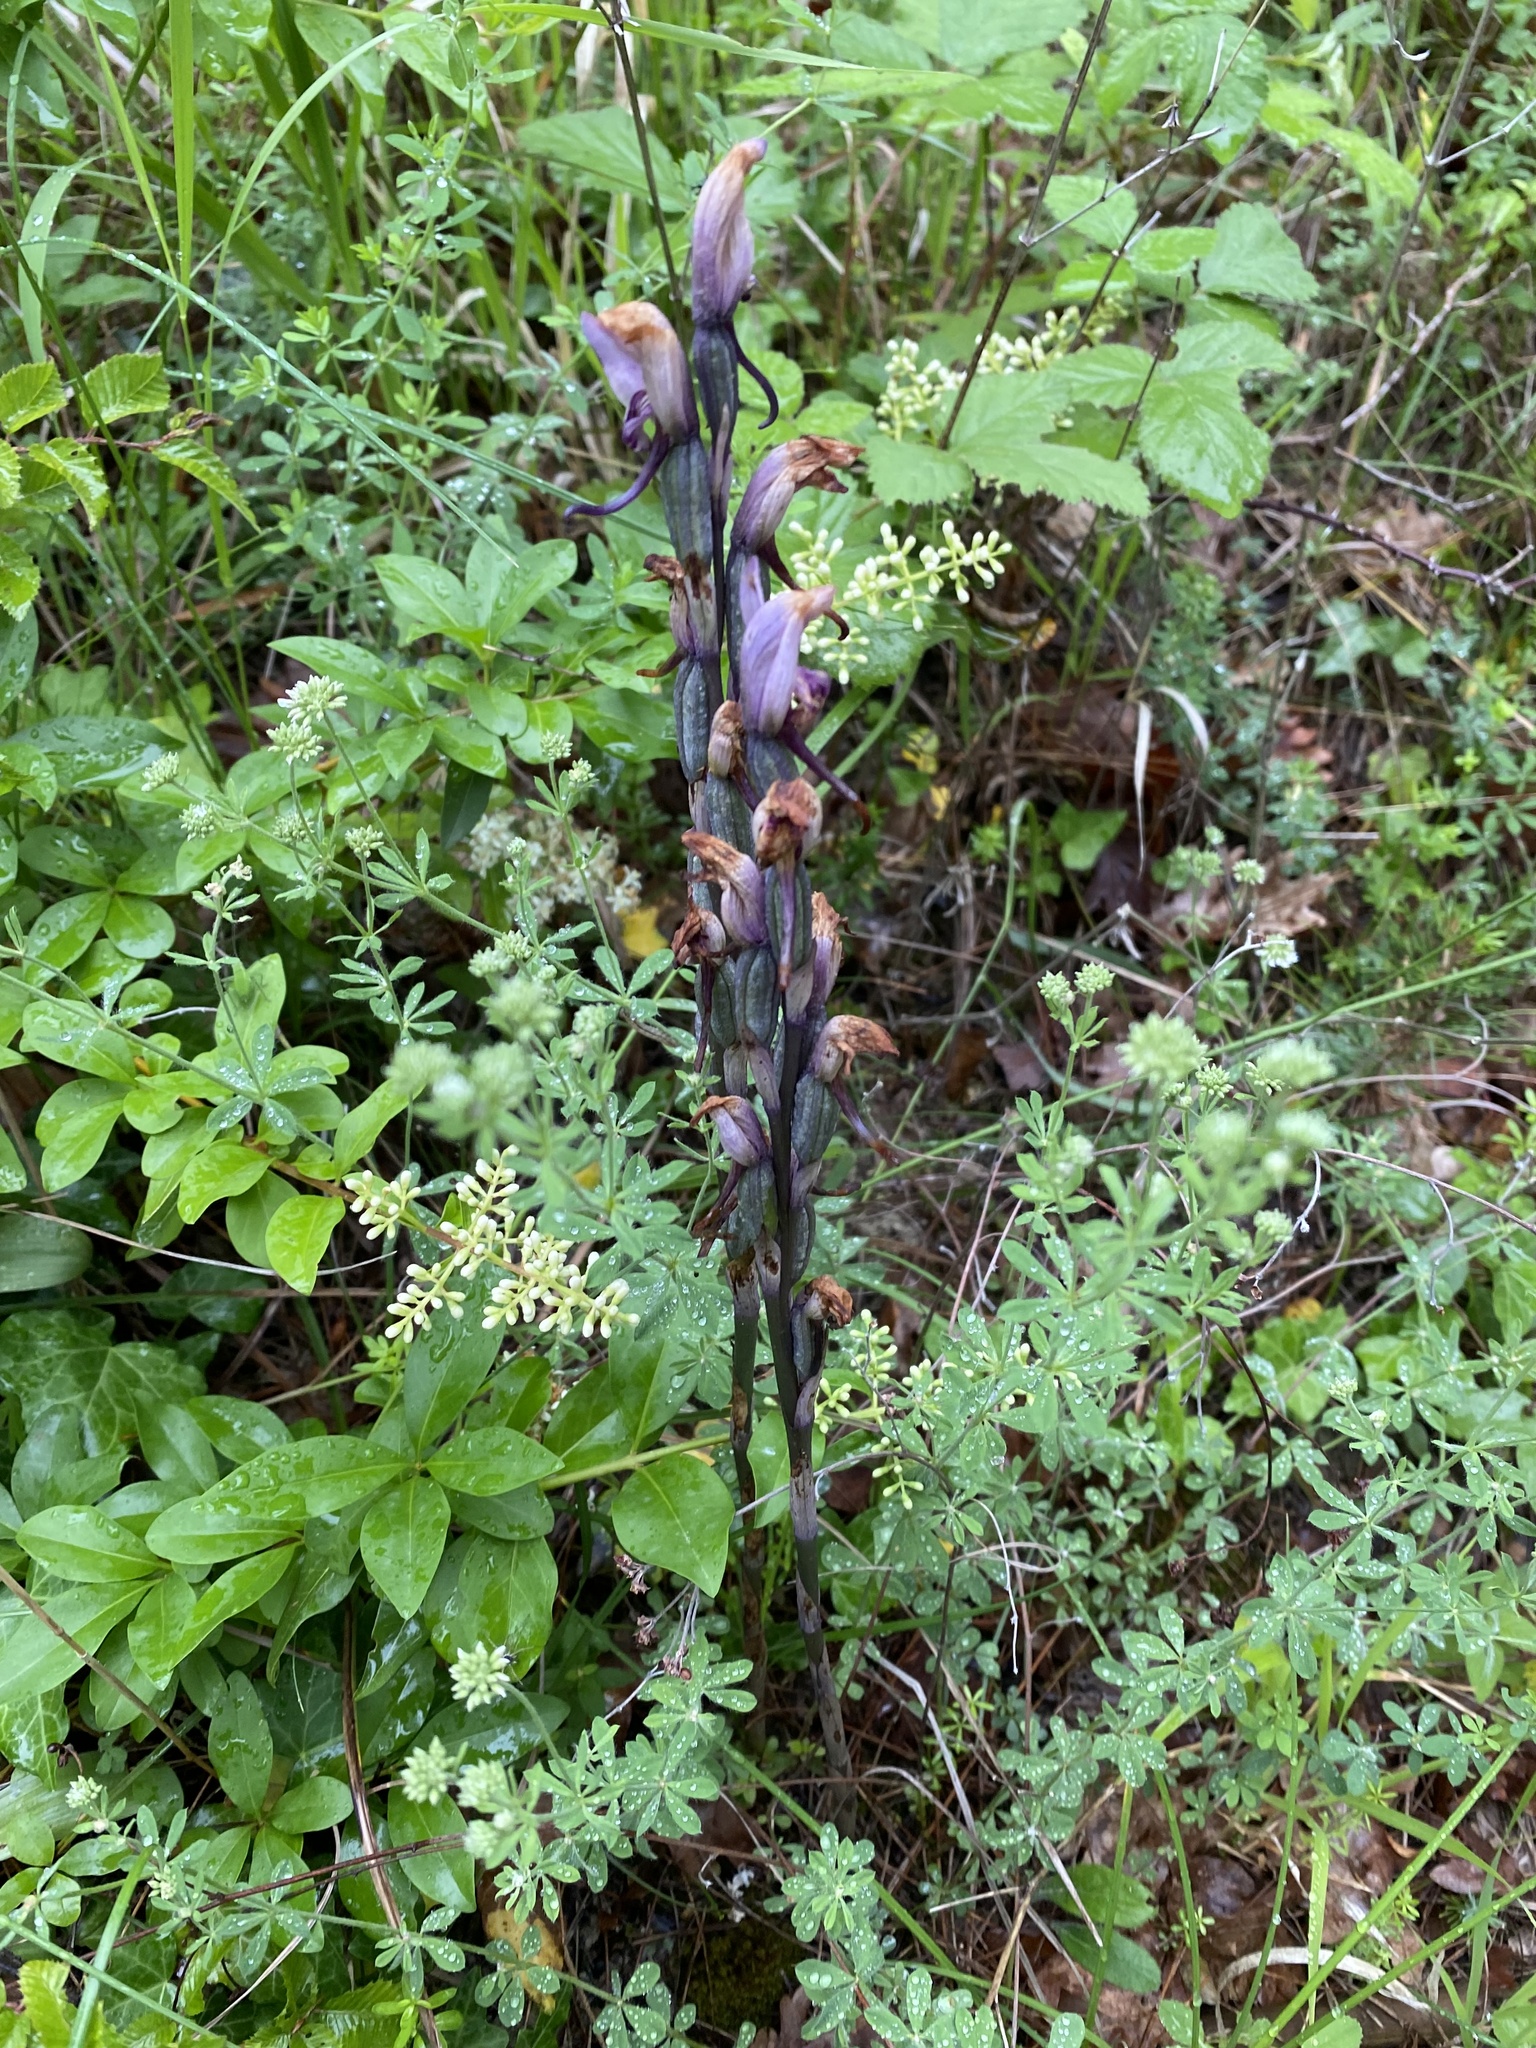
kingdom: Plantae
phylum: Tracheophyta
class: Liliopsida
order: Asparagales
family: Orchidaceae
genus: Limodorum
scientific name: Limodorum abortivum
